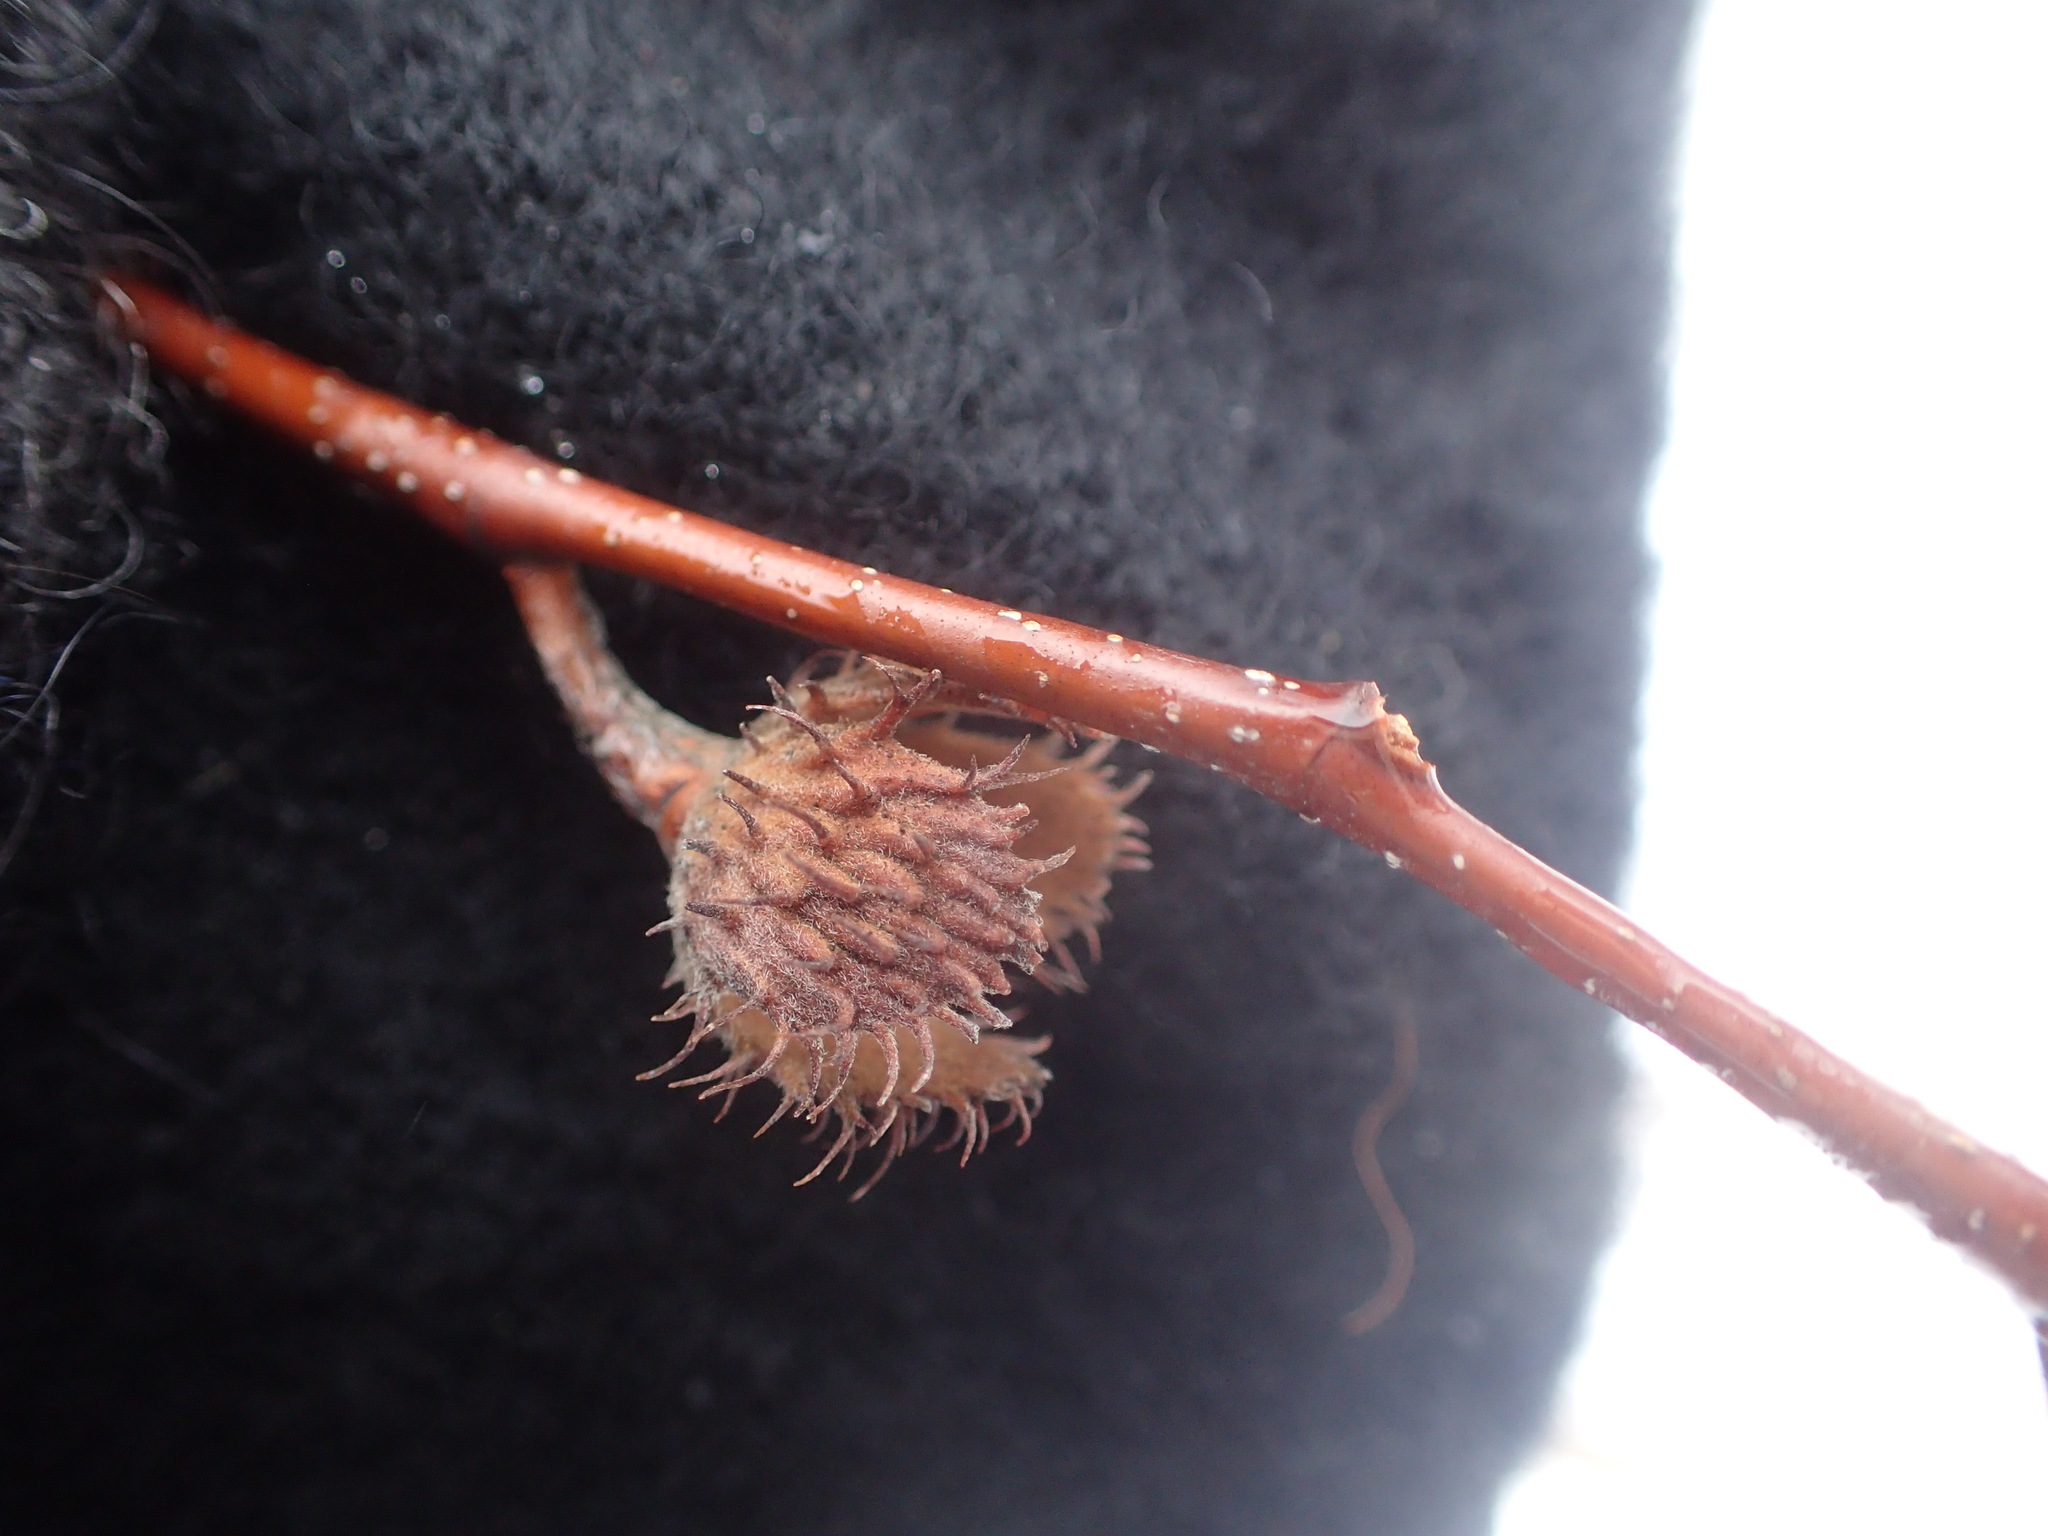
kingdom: Plantae
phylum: Tracheophyta
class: Magnoliopsida
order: Fagales
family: Fagaceae
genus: Fagus
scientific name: Fagus grandifolia
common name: American beech
